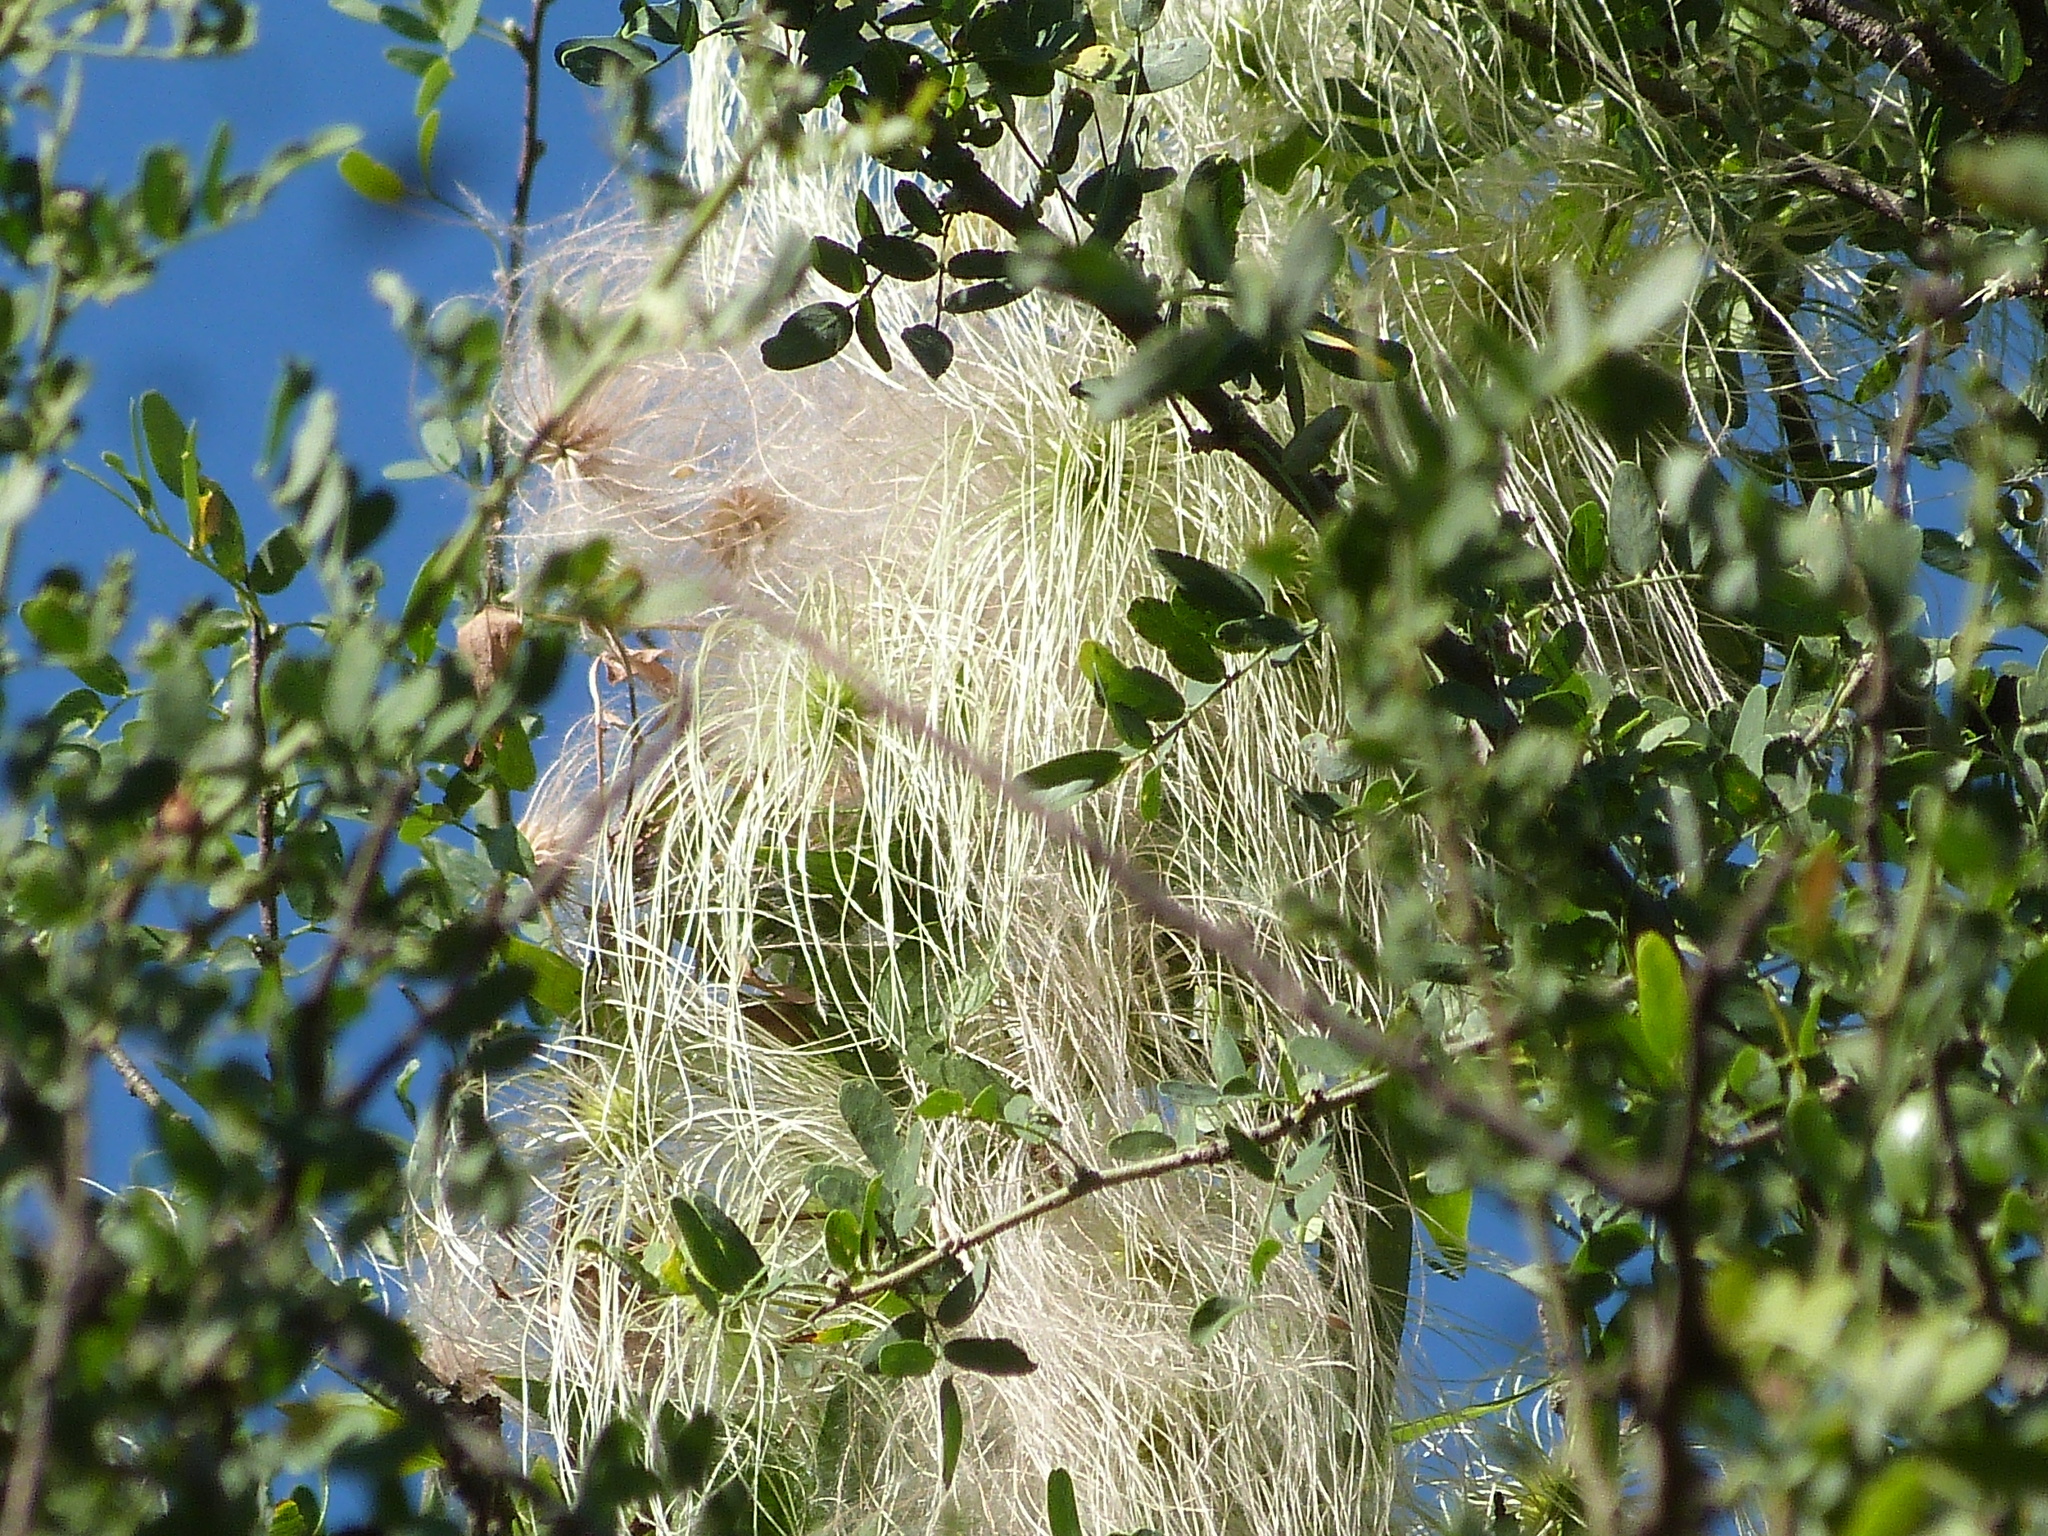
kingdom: Plantae
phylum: Tracheophyta
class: Magnoliopsida
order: Ranunculales
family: Ranunculaceae
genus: Clematis
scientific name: Clematis montevidensis
